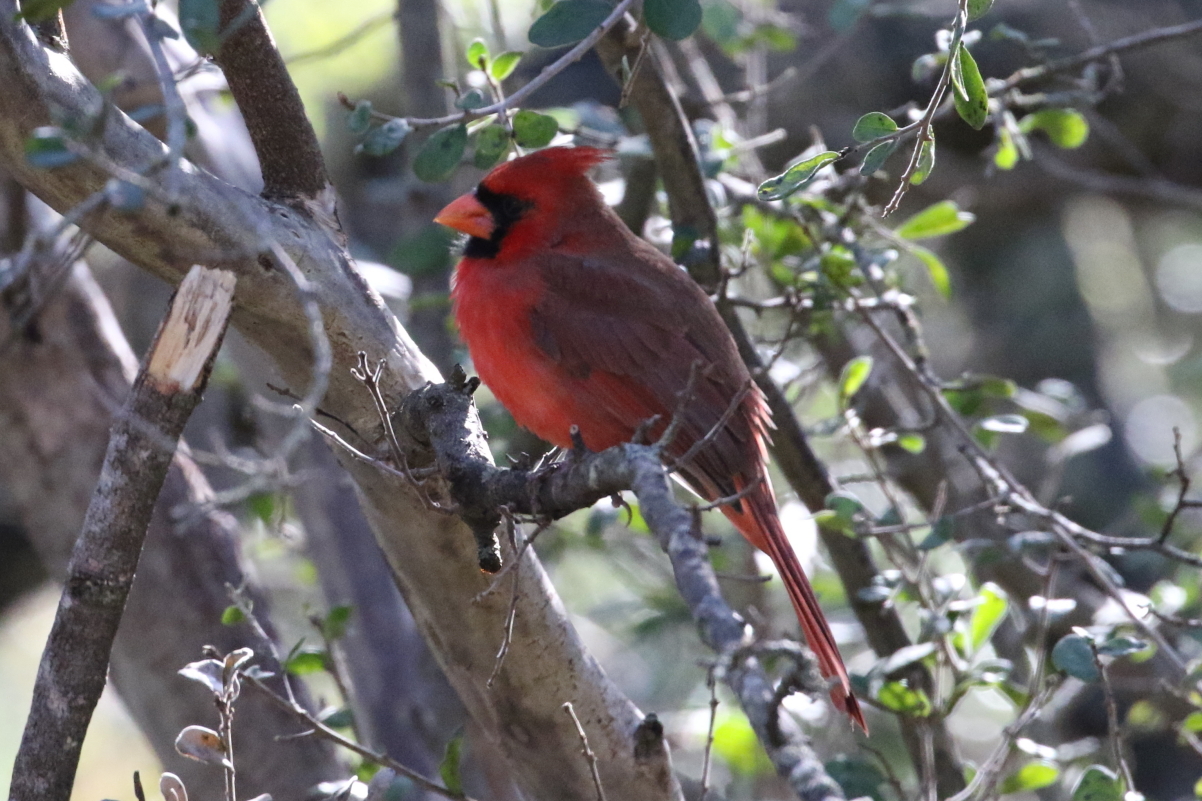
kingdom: Animalia
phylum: Chordata
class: Aves
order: Passeriformes
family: Cardinalidae
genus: Cardinalis
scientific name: Cardinalis cardinalis
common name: Northern cardinal
